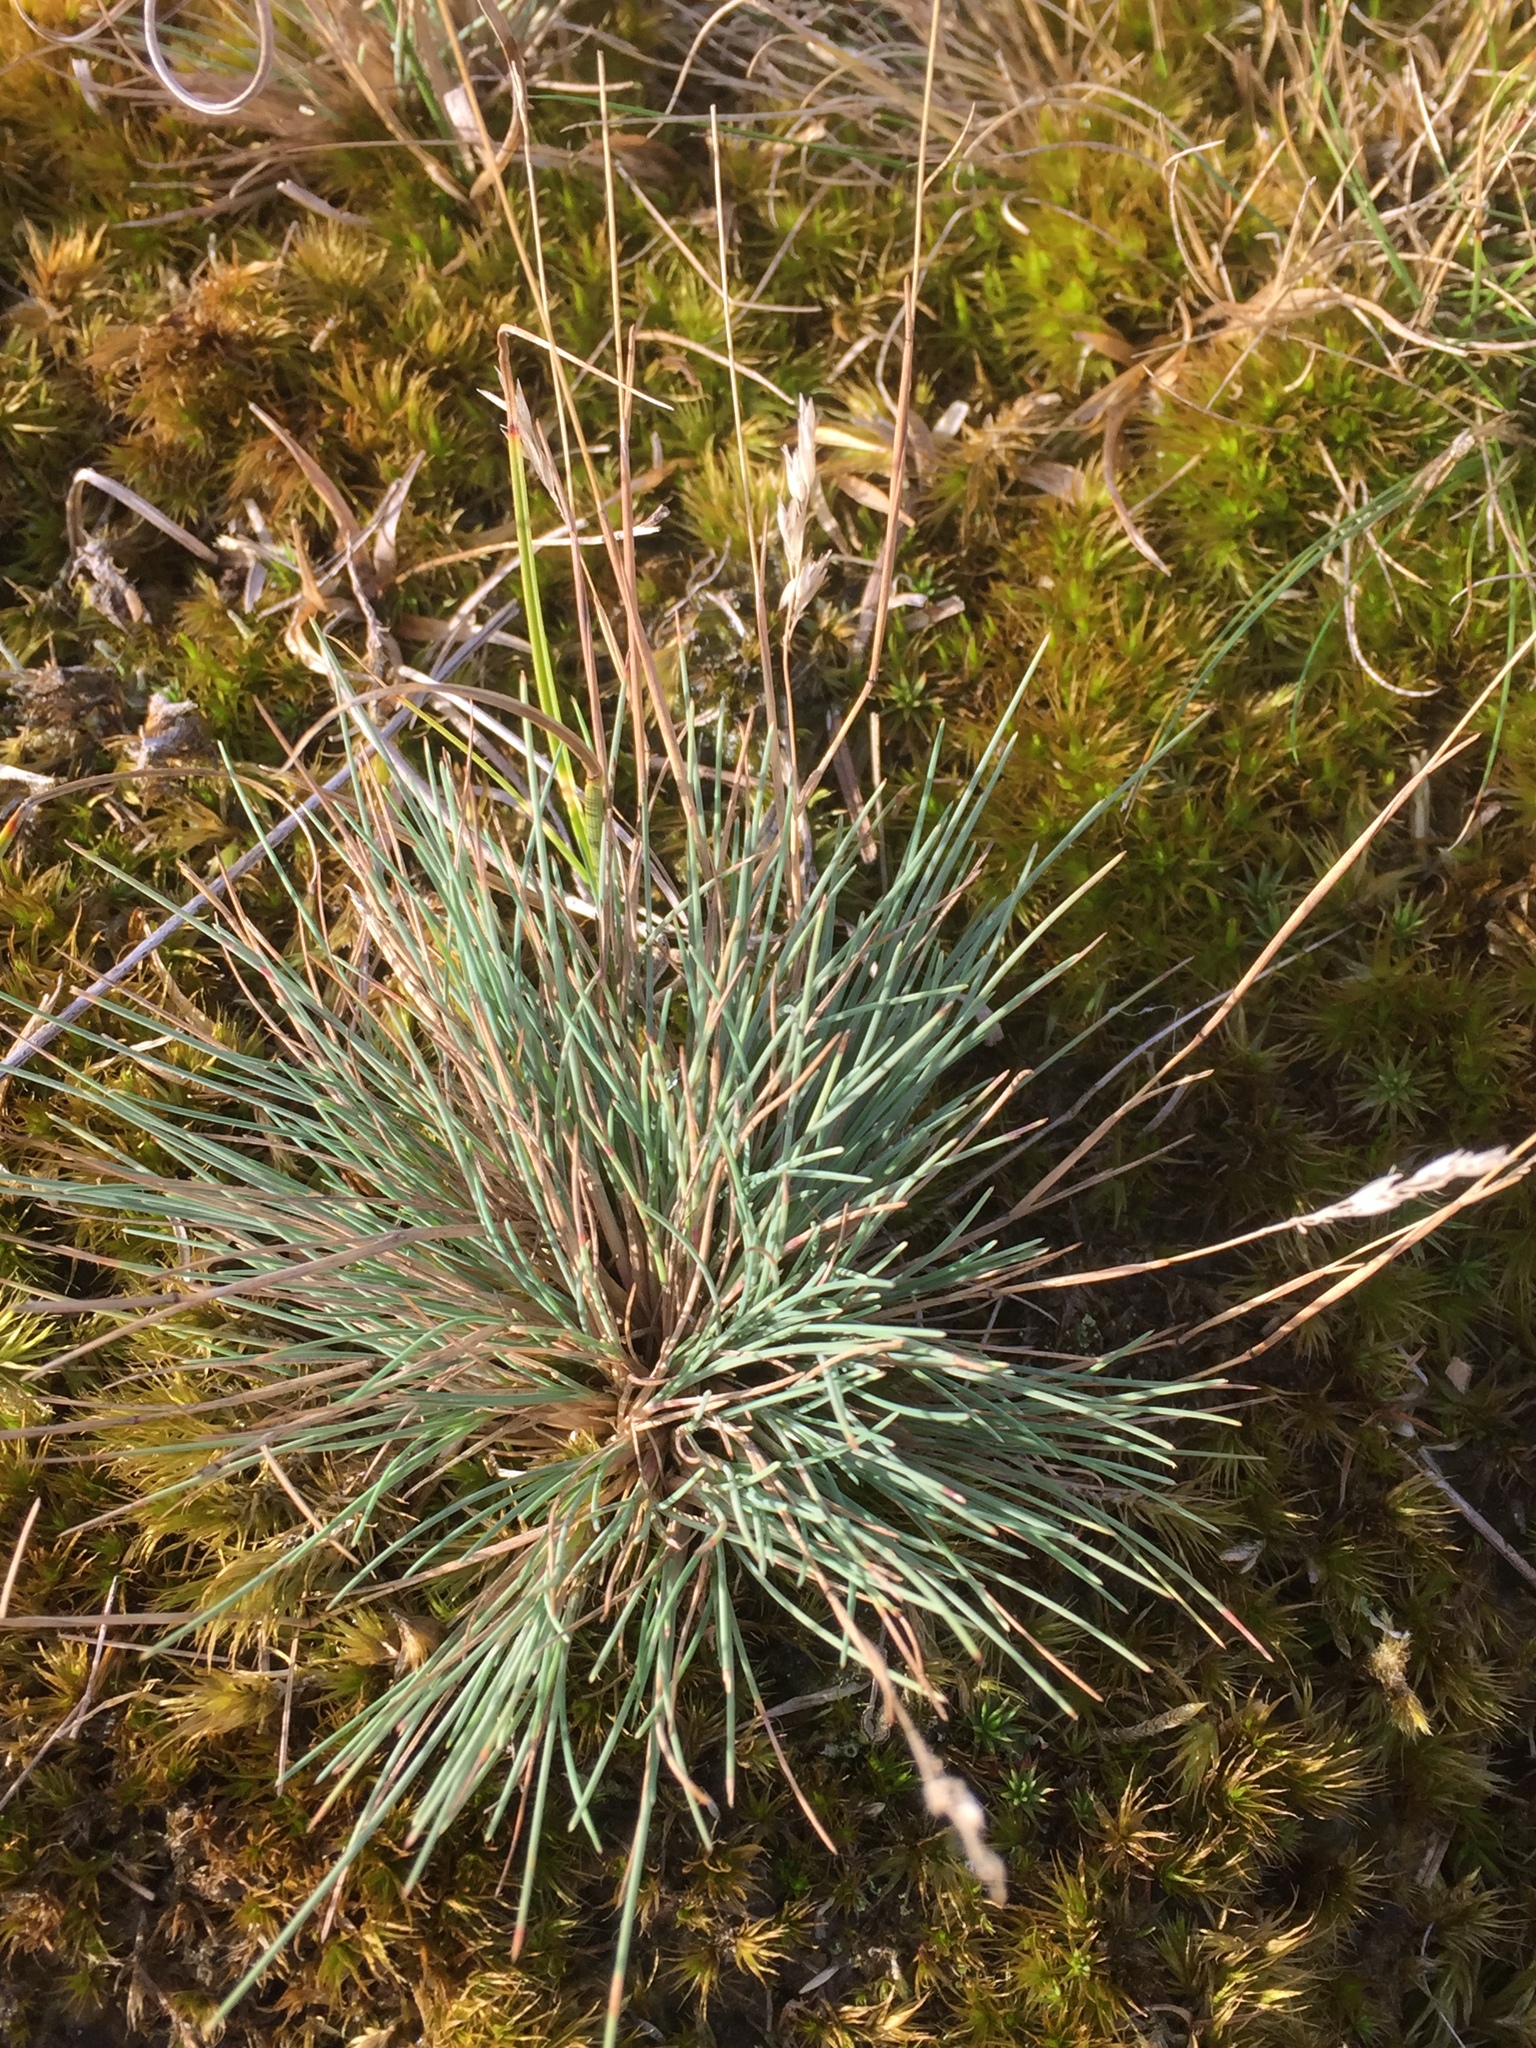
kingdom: Plantae
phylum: Tracheophyta
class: Liliopsida
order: Poales
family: Poaceae
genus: Corynephorus
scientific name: Corynephorus canescens
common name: Grey hair-grass
